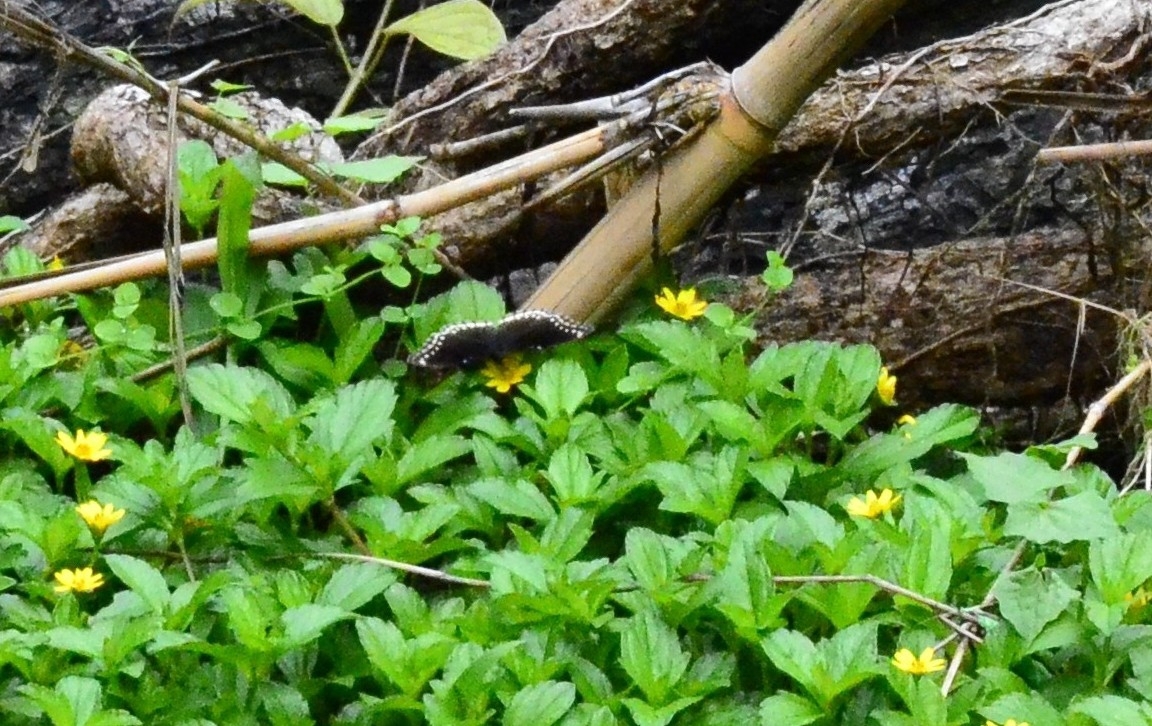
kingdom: Animalia
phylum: Arthropoda
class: Insecta
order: Lepidoptera
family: Nymphalidae
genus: Hypolimnas
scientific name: Hypolimnas bolina
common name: Great eggfly
